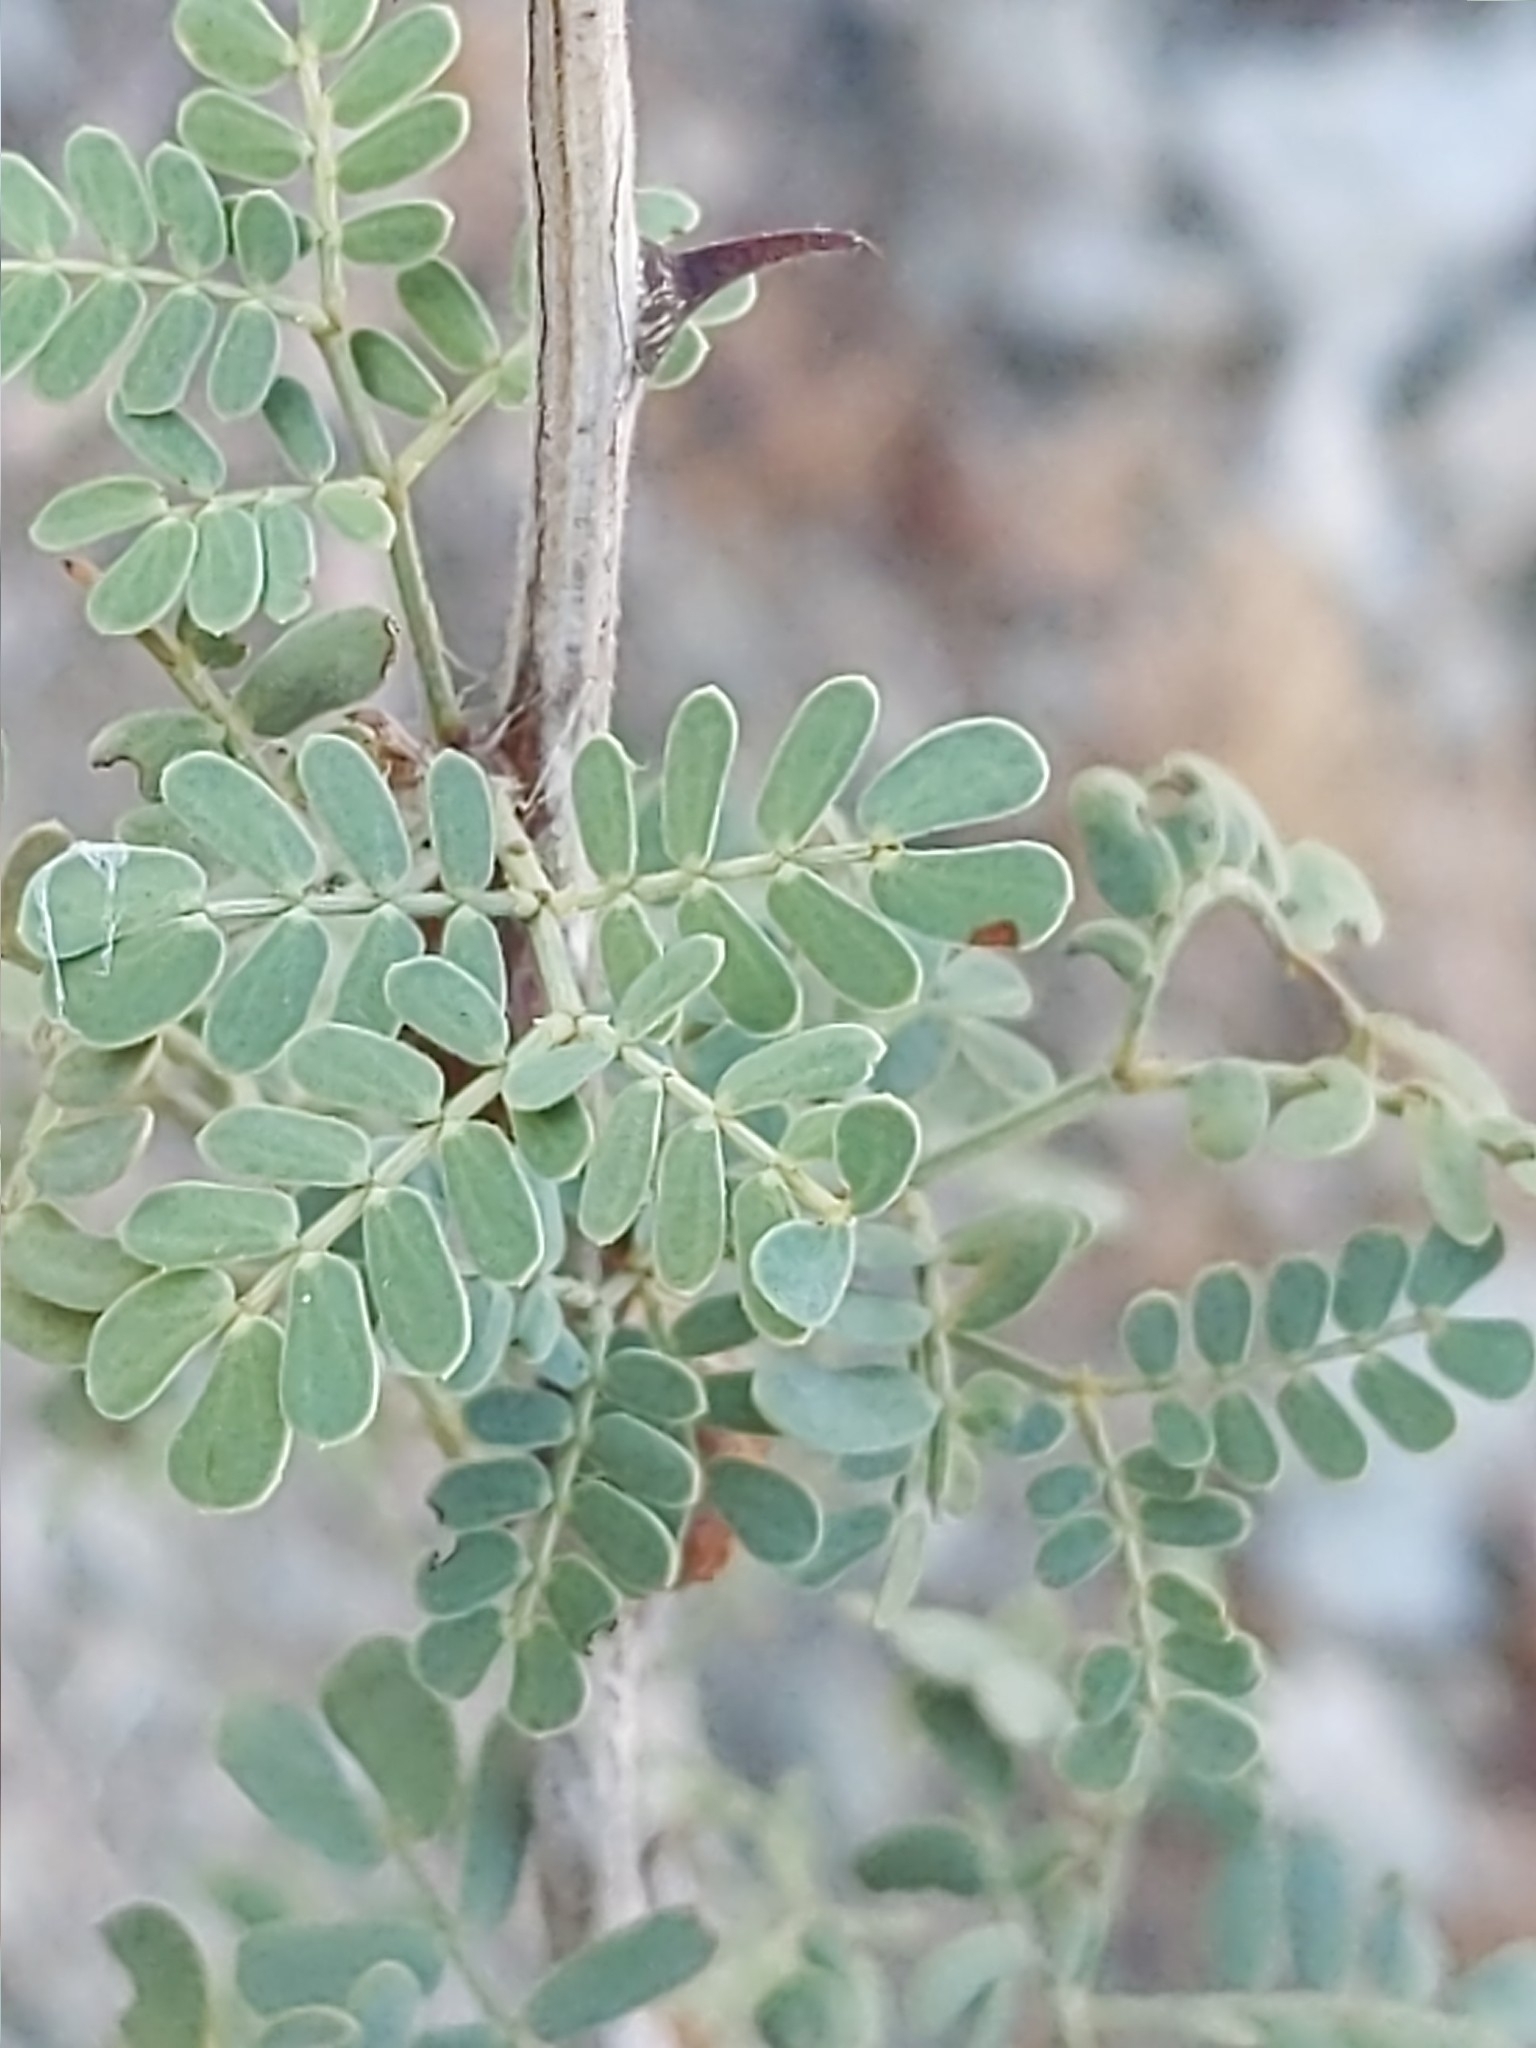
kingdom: Plantae
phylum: Tracheophyta
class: Magnoliopsida
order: Fabales
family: Fabaceae
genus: Senegalia
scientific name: Senegalia greggii
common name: Texas-mimosa
